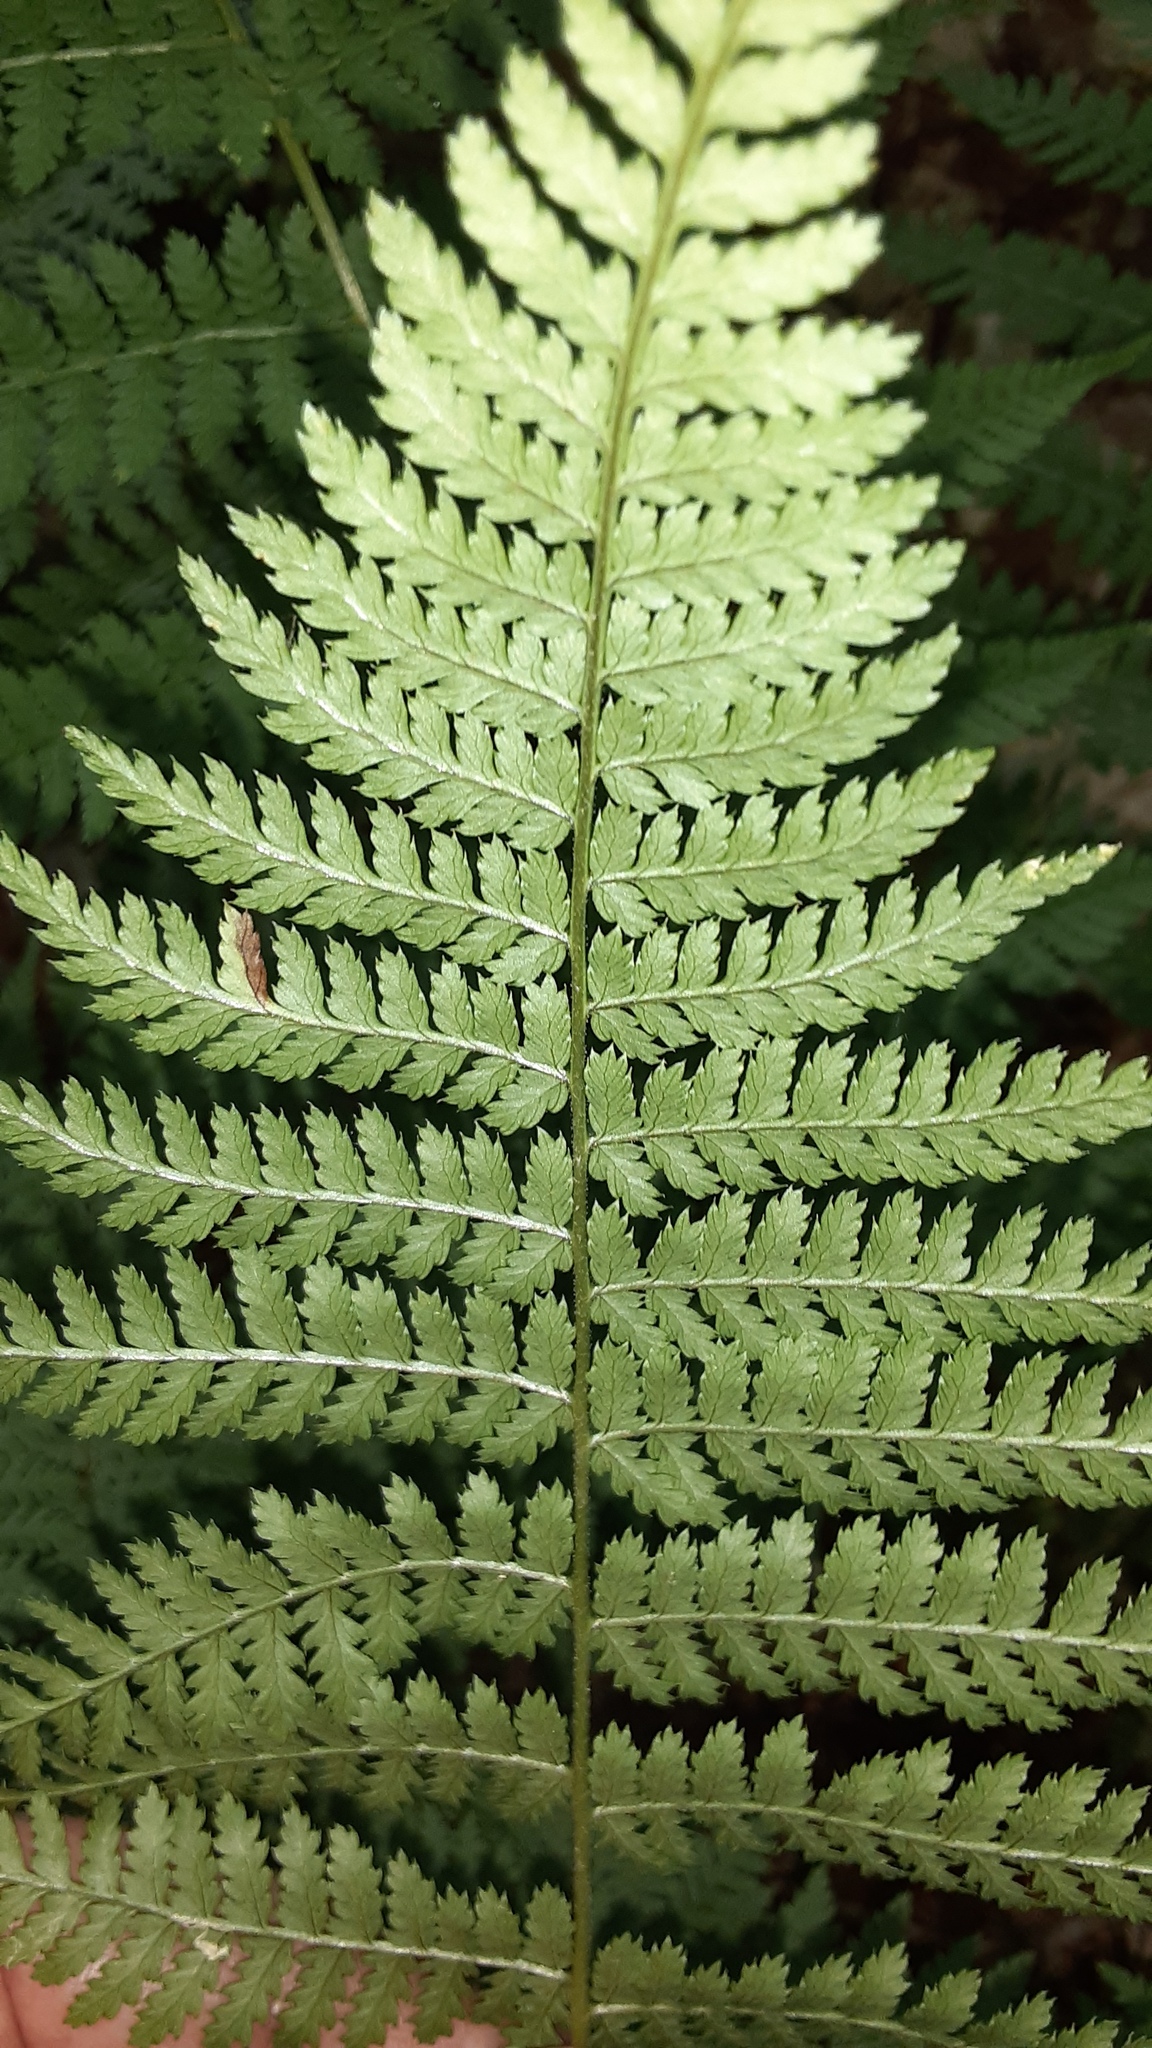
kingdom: Plantae
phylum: Tracheophyta
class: Polypodiopsida
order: Polypodiales
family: Dryopteridaceae
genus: Dryopteris
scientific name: Dryopteris intermedia
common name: Evergreen wood fern
